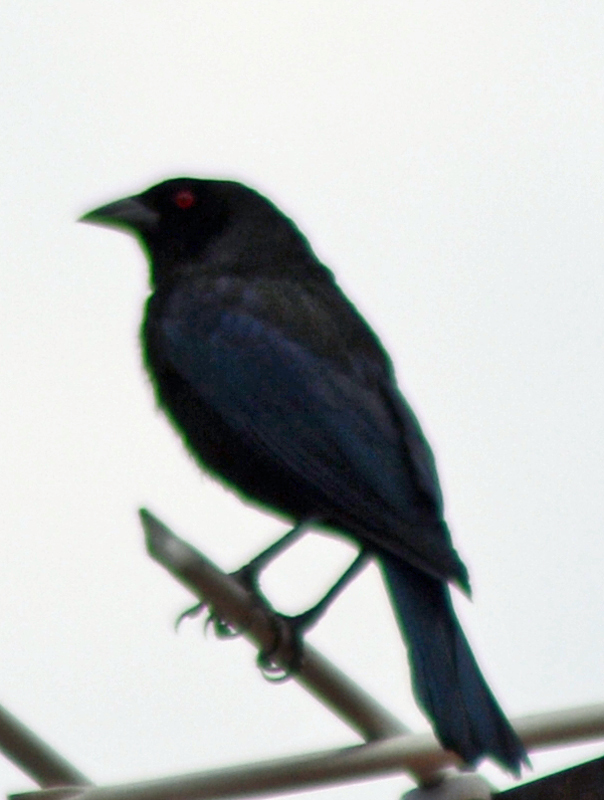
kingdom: Animalia
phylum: Chordata
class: Aves
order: Passeriformes
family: Icteridae
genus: Molothrus
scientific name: Molothrus aeneus
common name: Bronzed cowbird
